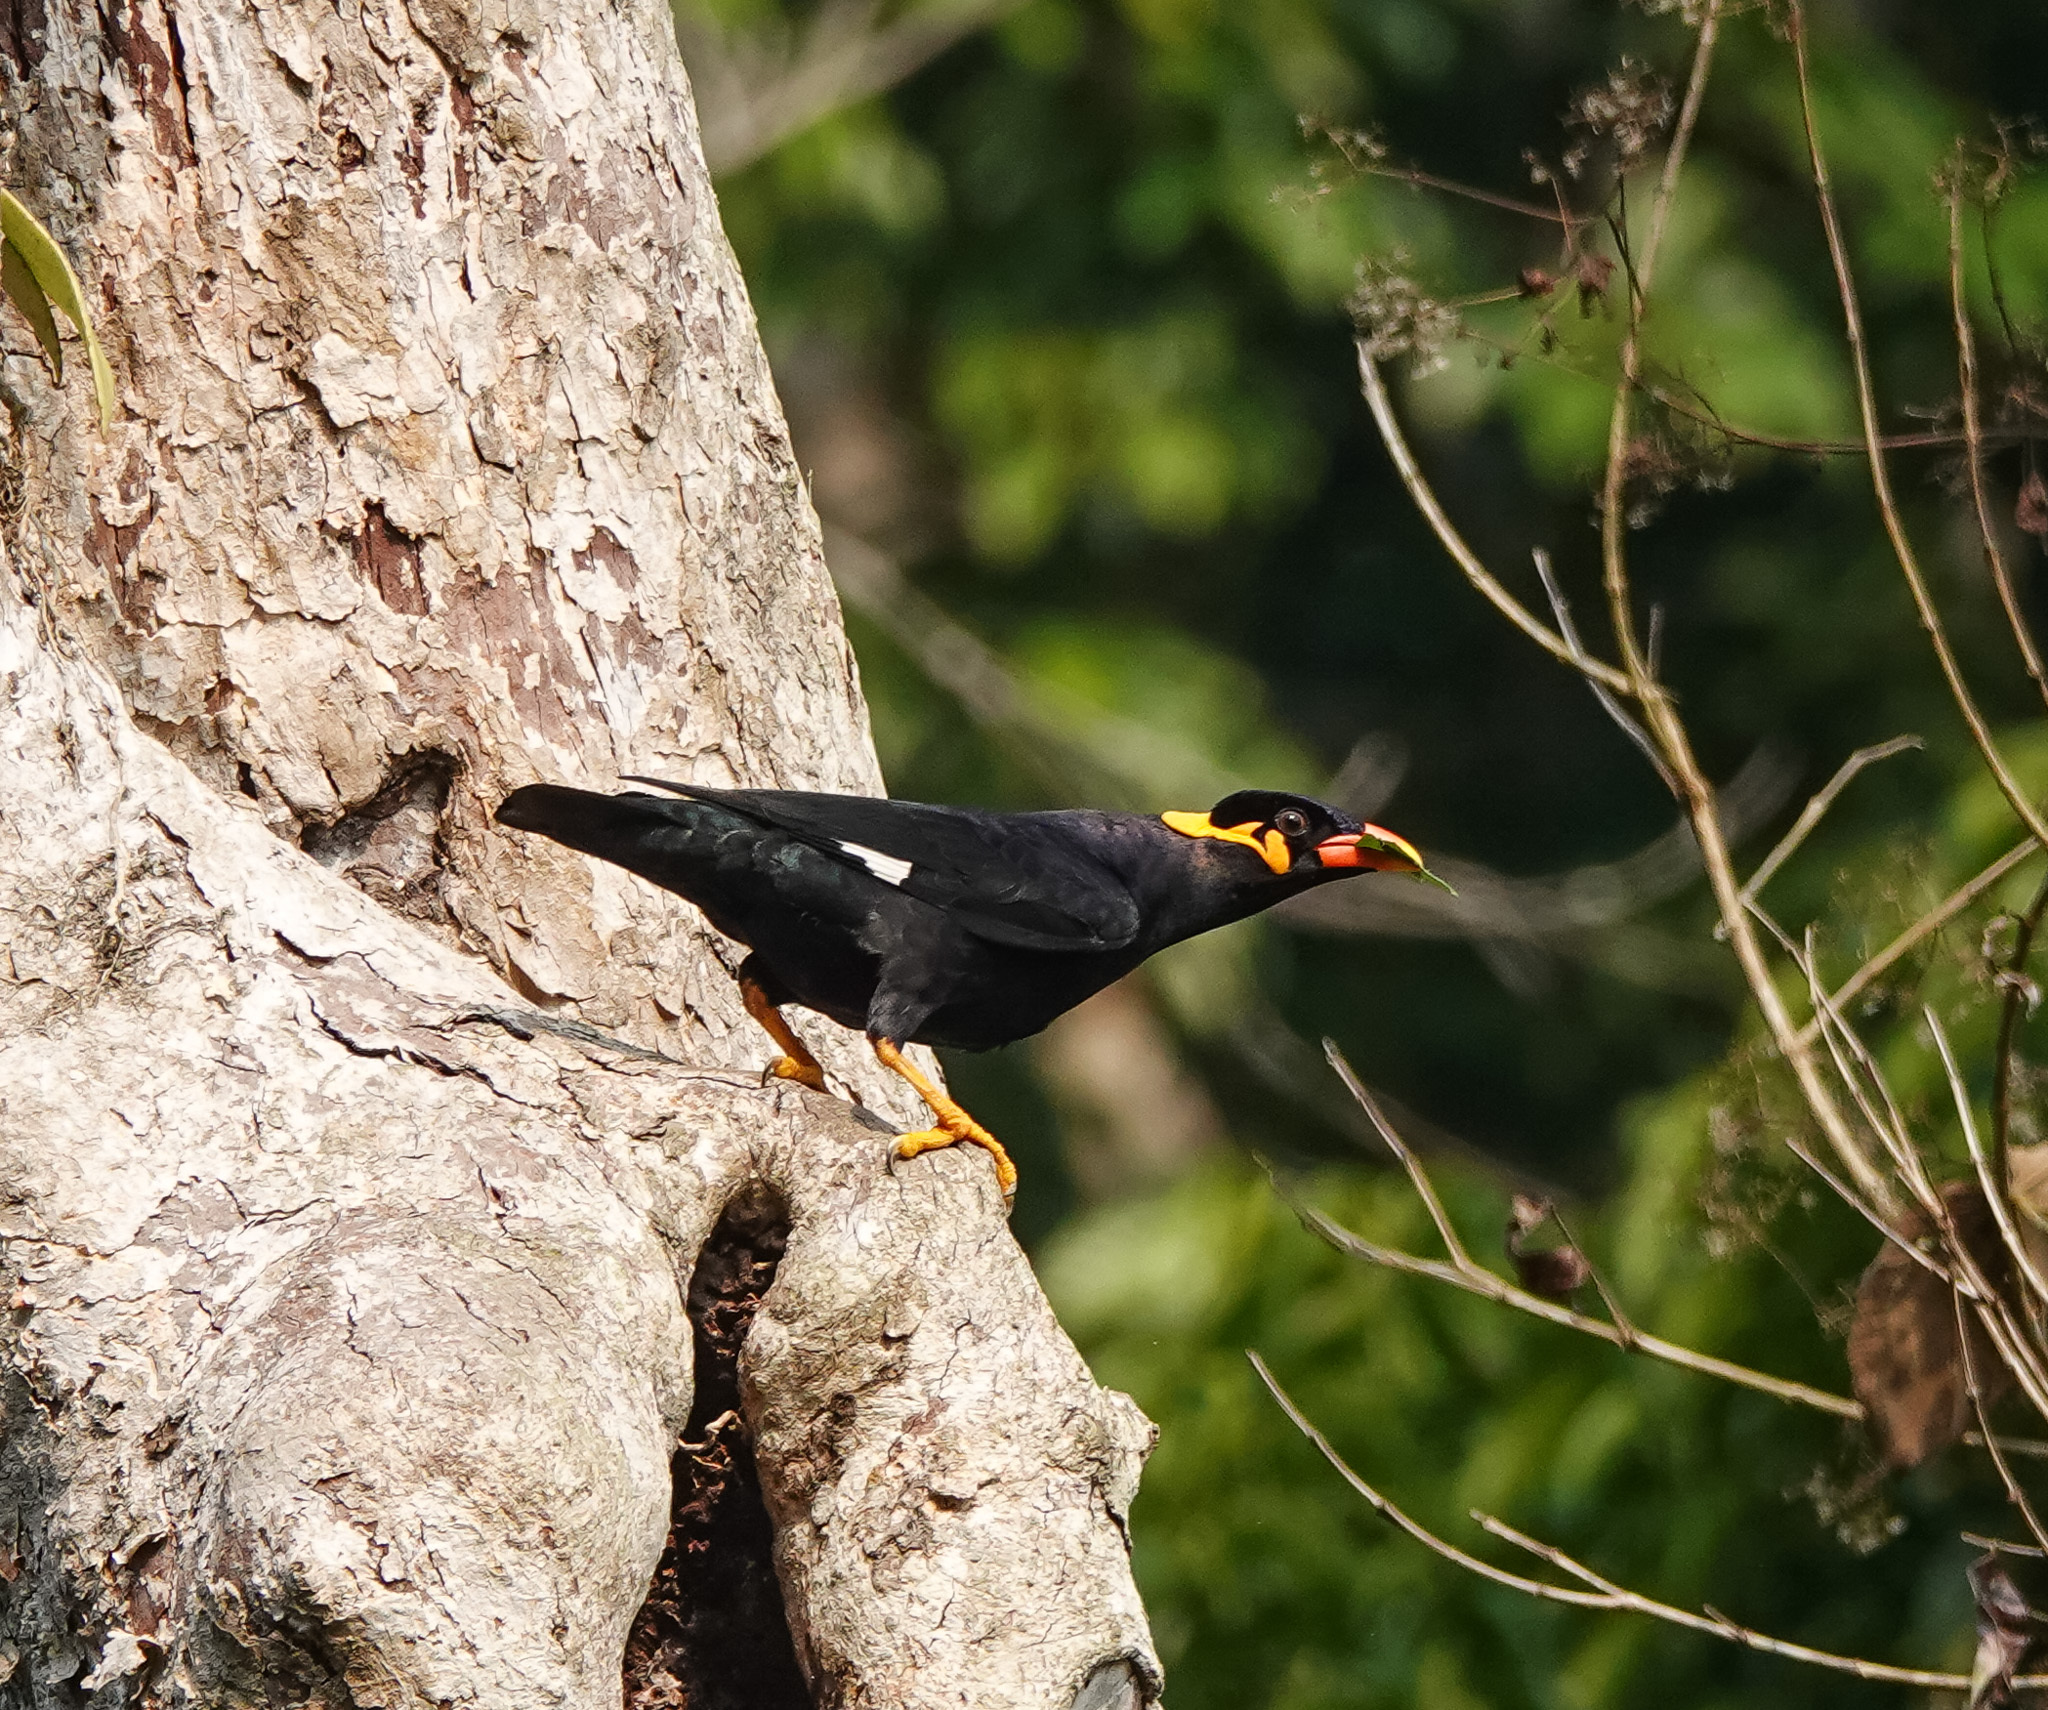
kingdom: Animalia
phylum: Chordata
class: Aves
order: Passeriformes
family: Sturnidae
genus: Gracula
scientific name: Gracula religiosa
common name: Common hill myna
